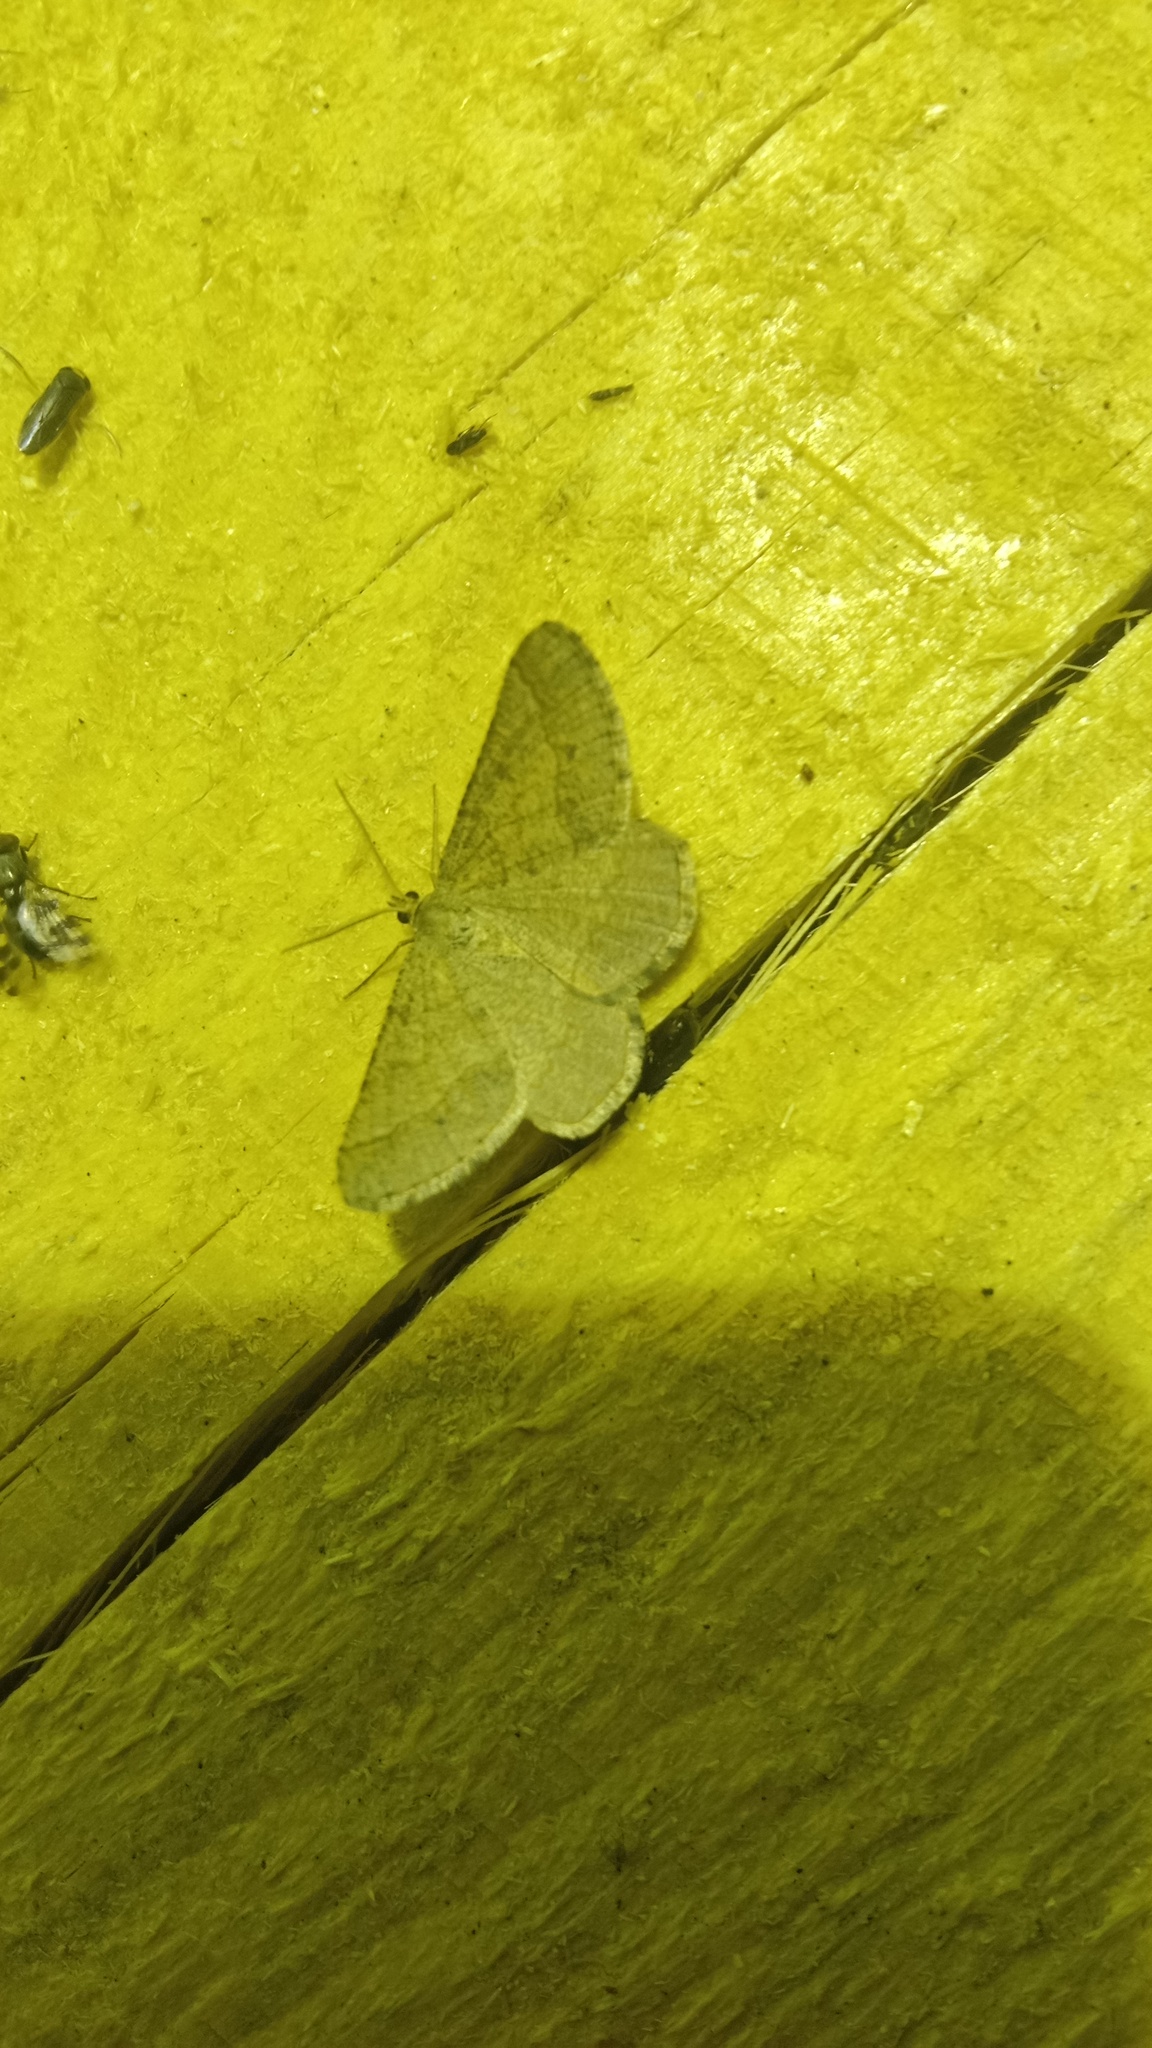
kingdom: Animalia
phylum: Arthropoda
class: Insecta
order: Lepidoptera
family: Geometridae
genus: Tephrina
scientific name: Tephrina murinaria
